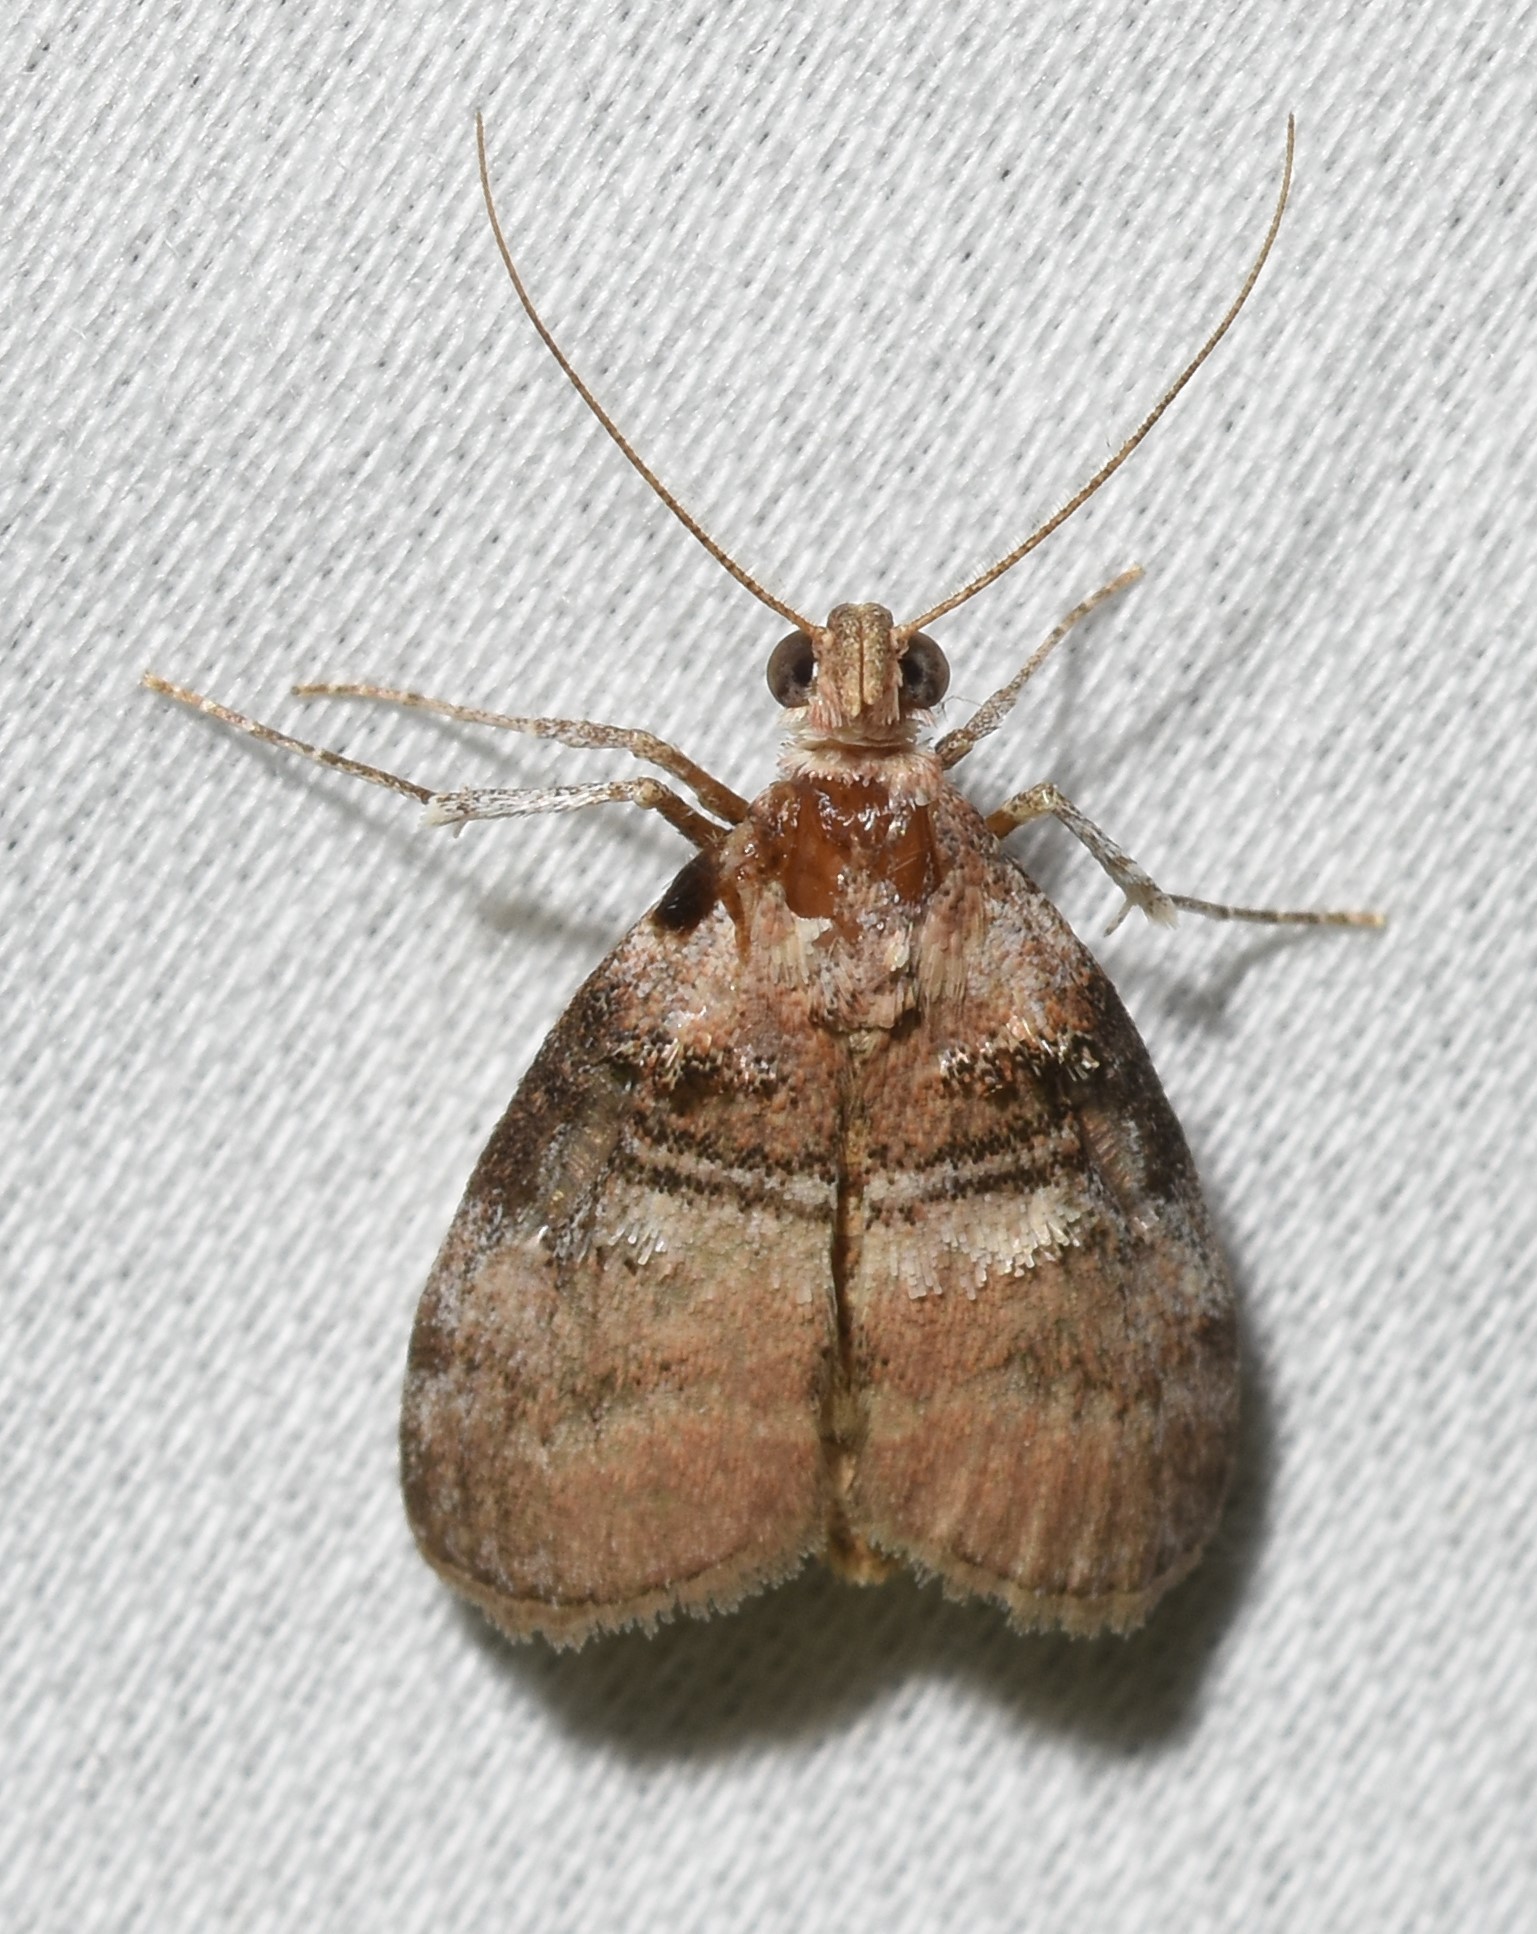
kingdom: Animalia
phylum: Arthropoda
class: Insecta
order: Lepidoptera
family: Pyralidae
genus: Pococera
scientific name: Pococera militella
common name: Sycamore webworm moth
